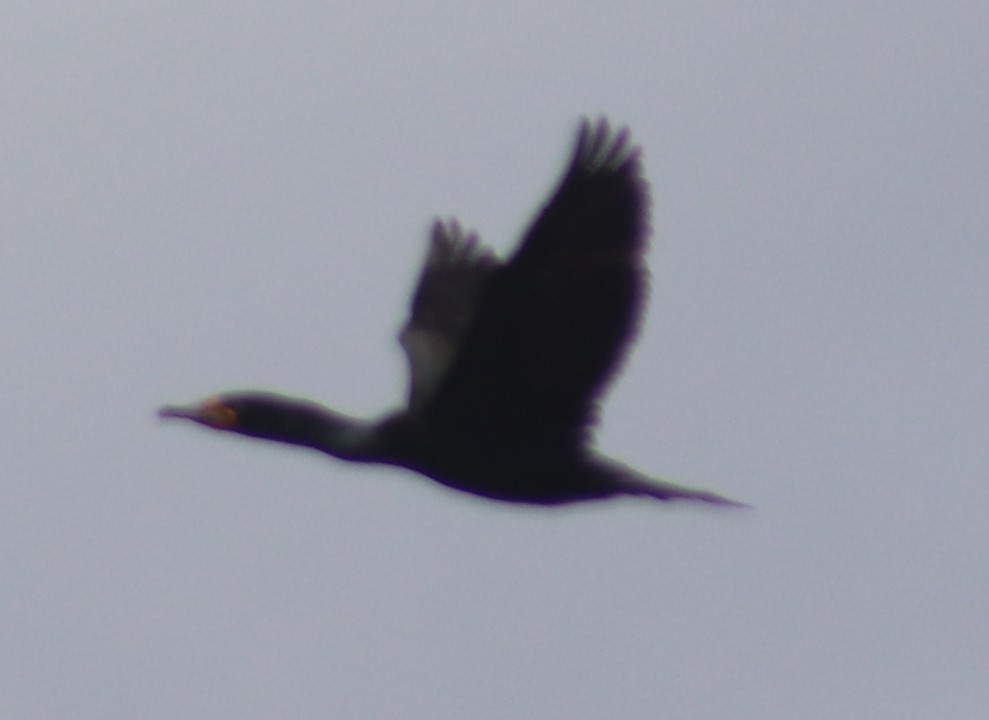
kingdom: Animalia
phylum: Chordata
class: Aves
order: Suliformes
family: Phalacrocoracidae
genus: Phalacrocorax
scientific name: Phalacrocorax auritus
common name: Double-crested cormorant
